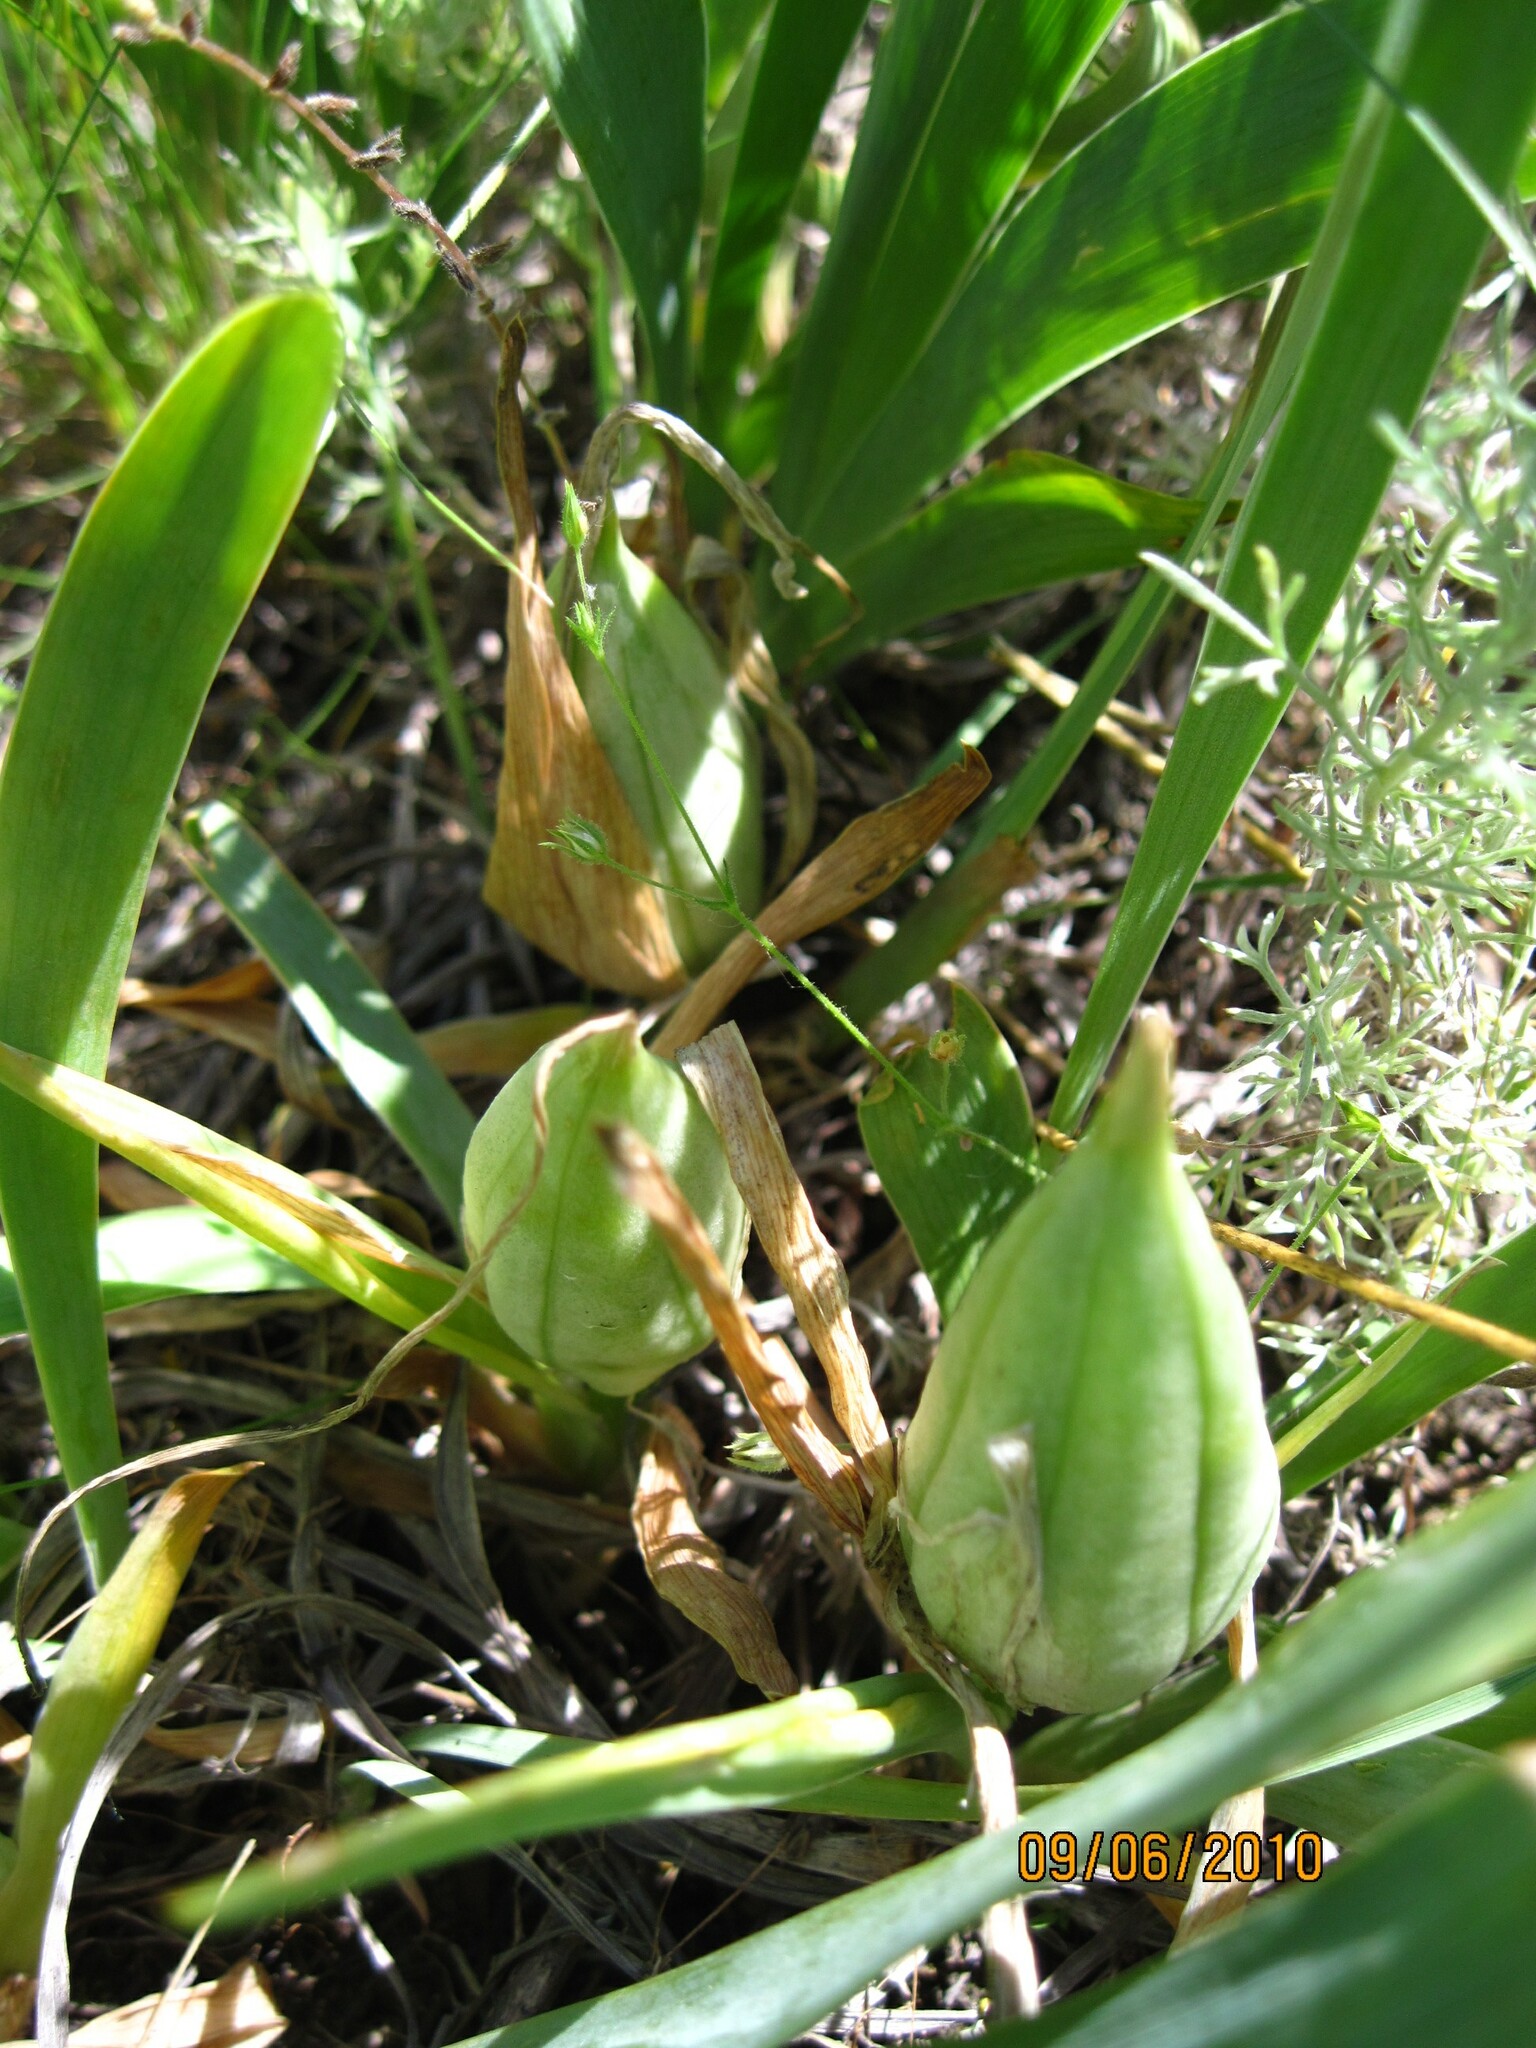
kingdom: Plantae
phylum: Tracheophyta
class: Liliopsida
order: Asparagales
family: Iridaceae
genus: Iris
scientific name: Iris pumila
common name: Dwarf iris
